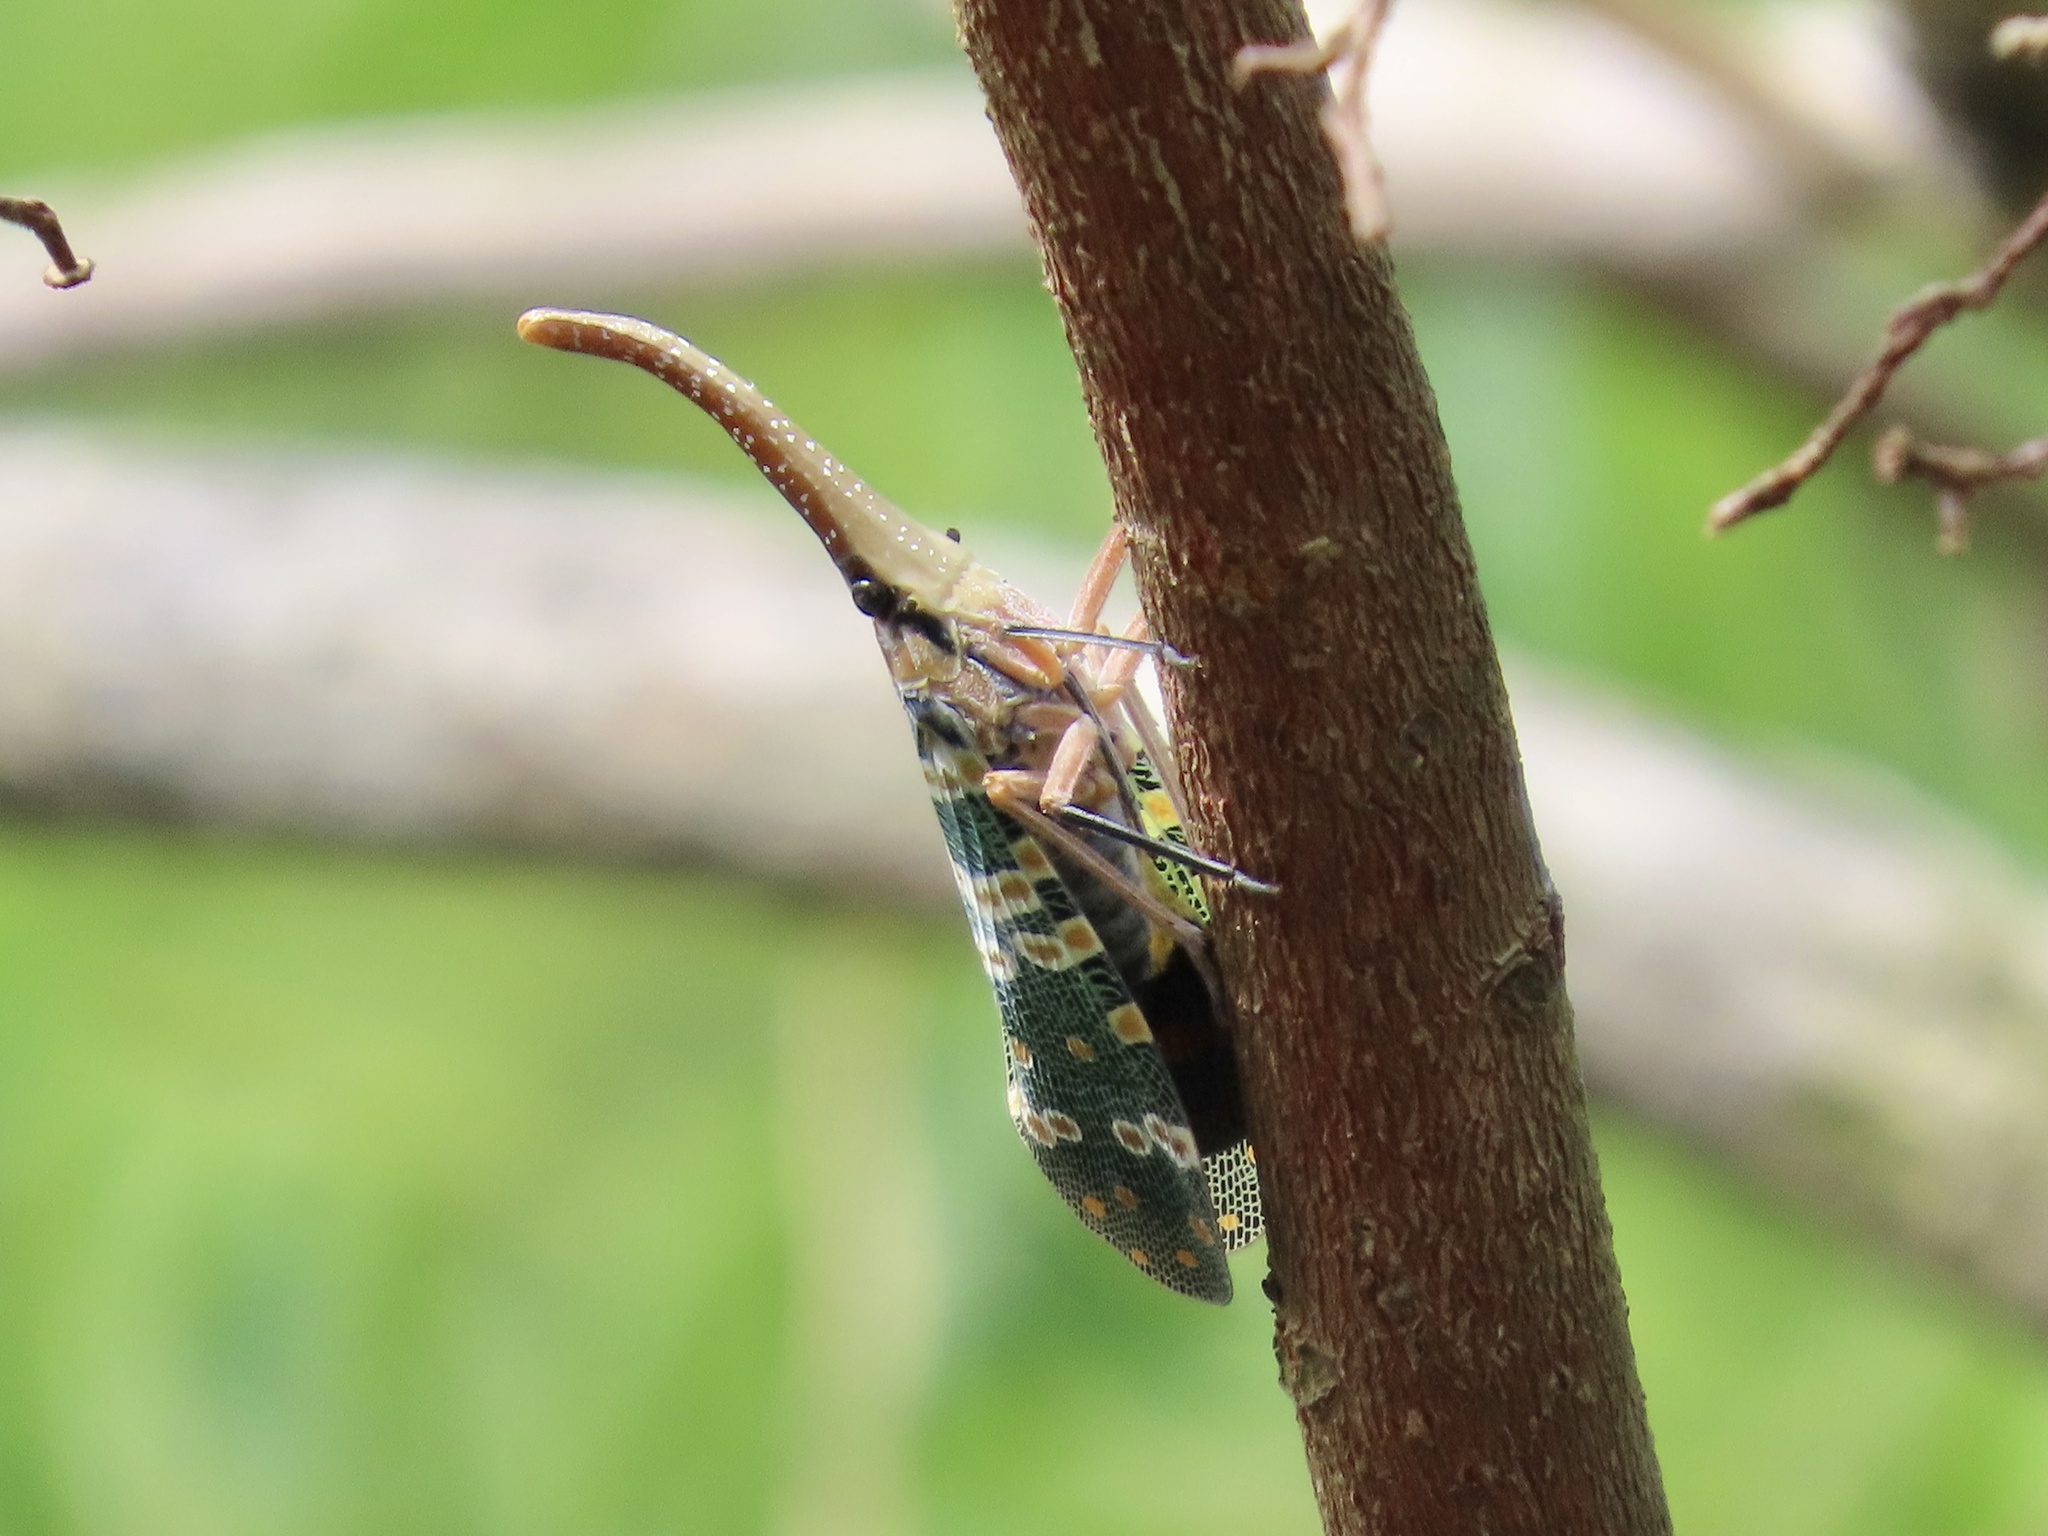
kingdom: Animalia
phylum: Arthropoda
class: Insecta
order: Hemiptera
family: Fulgoridae
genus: Pyrops
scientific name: Pyrops candelaria
